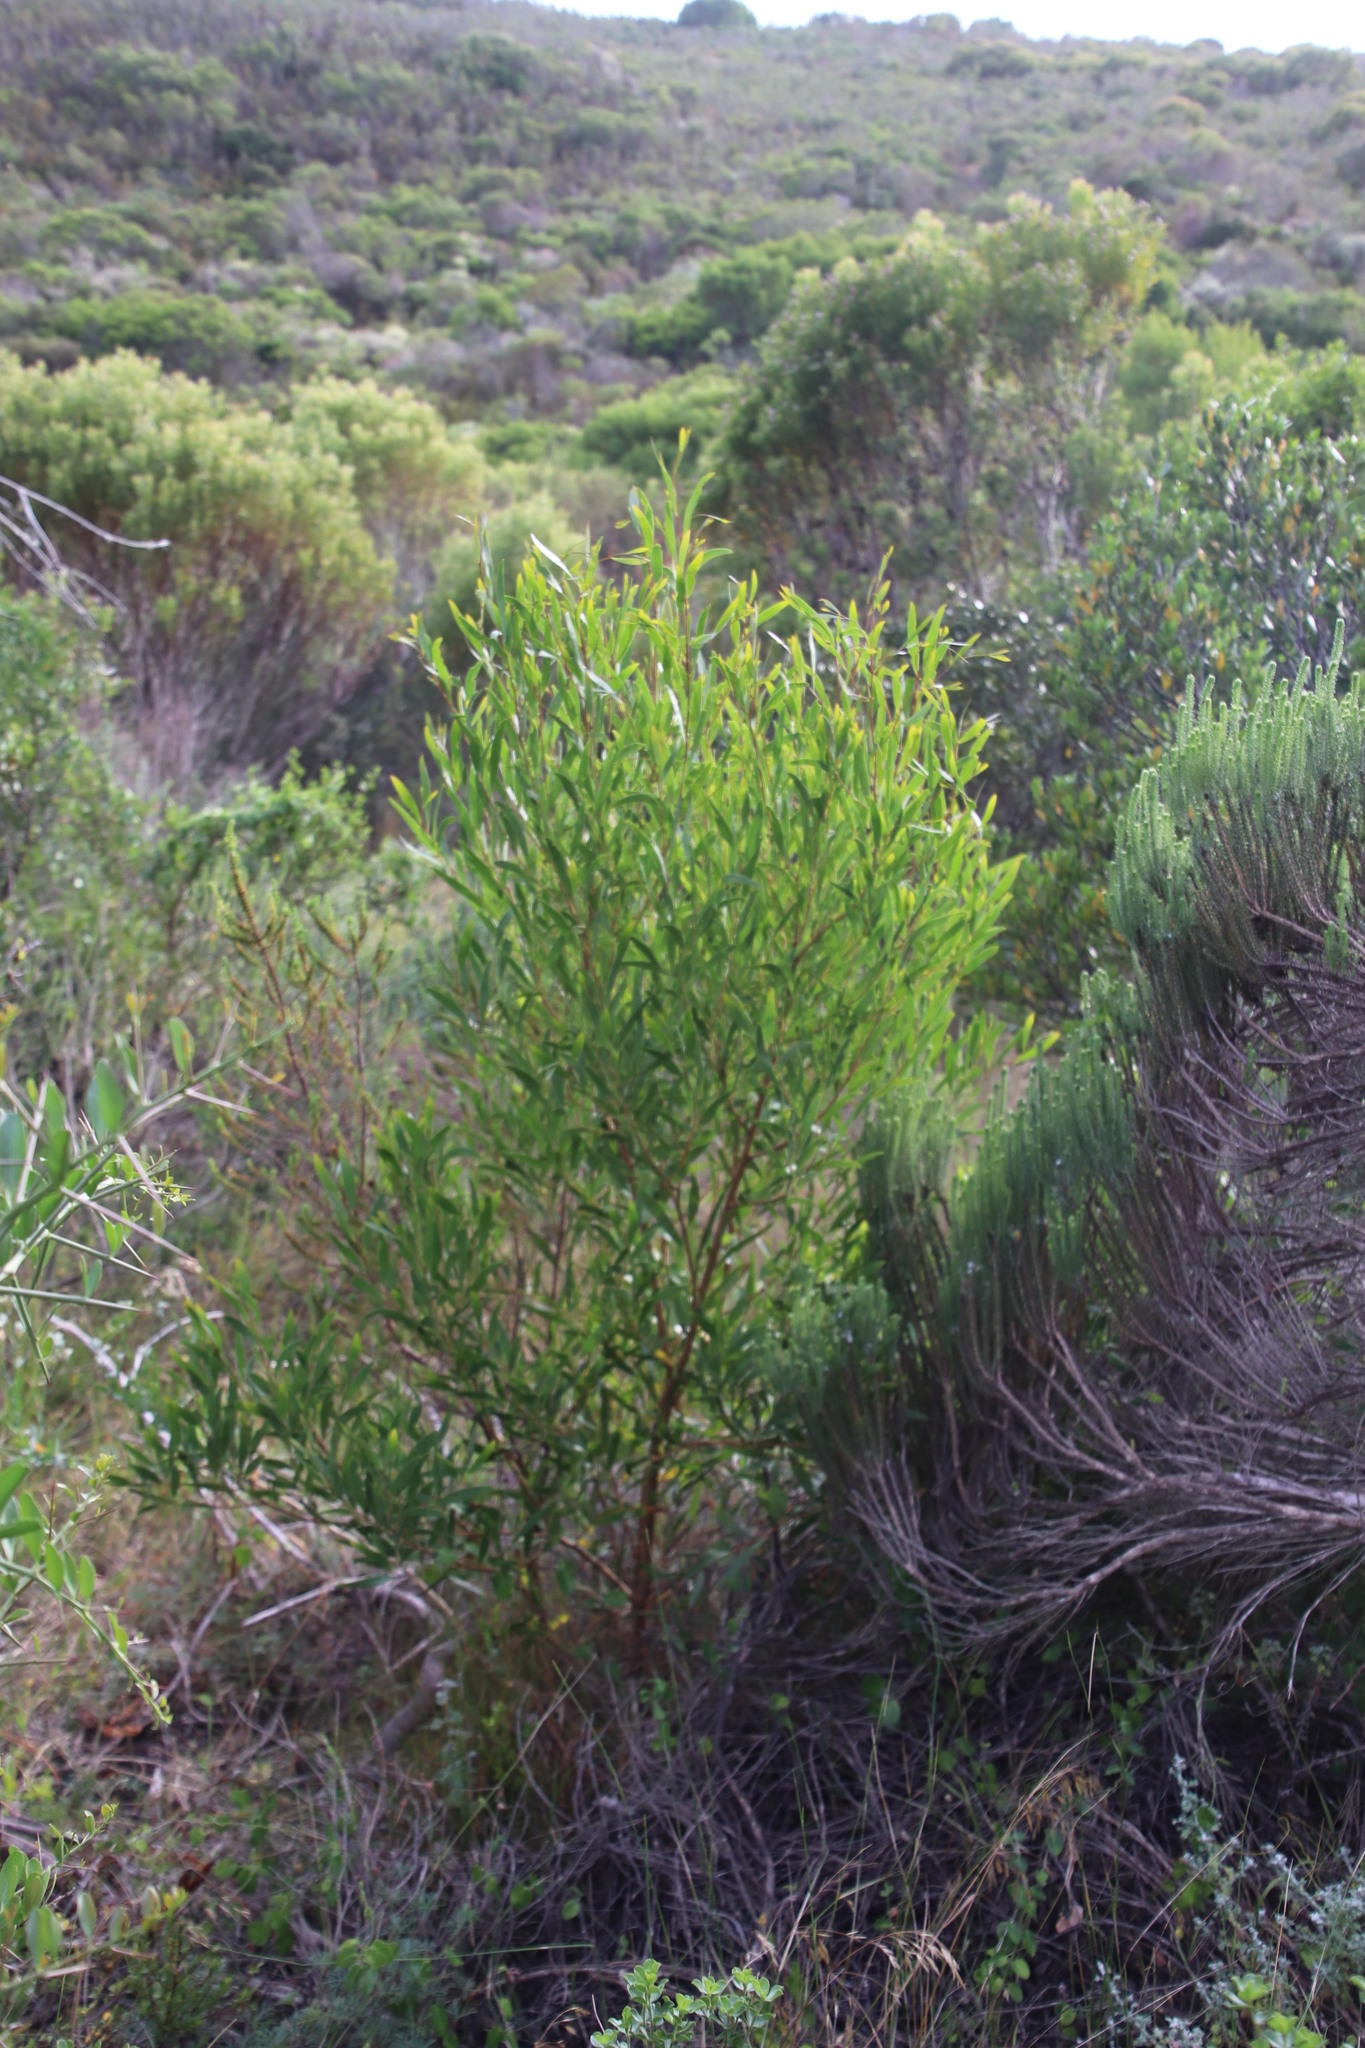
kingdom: Plantae
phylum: Tracheophyta
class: Magnoliopsida
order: Fabales
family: Fabaceae
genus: Acacia
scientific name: Acacia cyclops
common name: Coastal wattle
